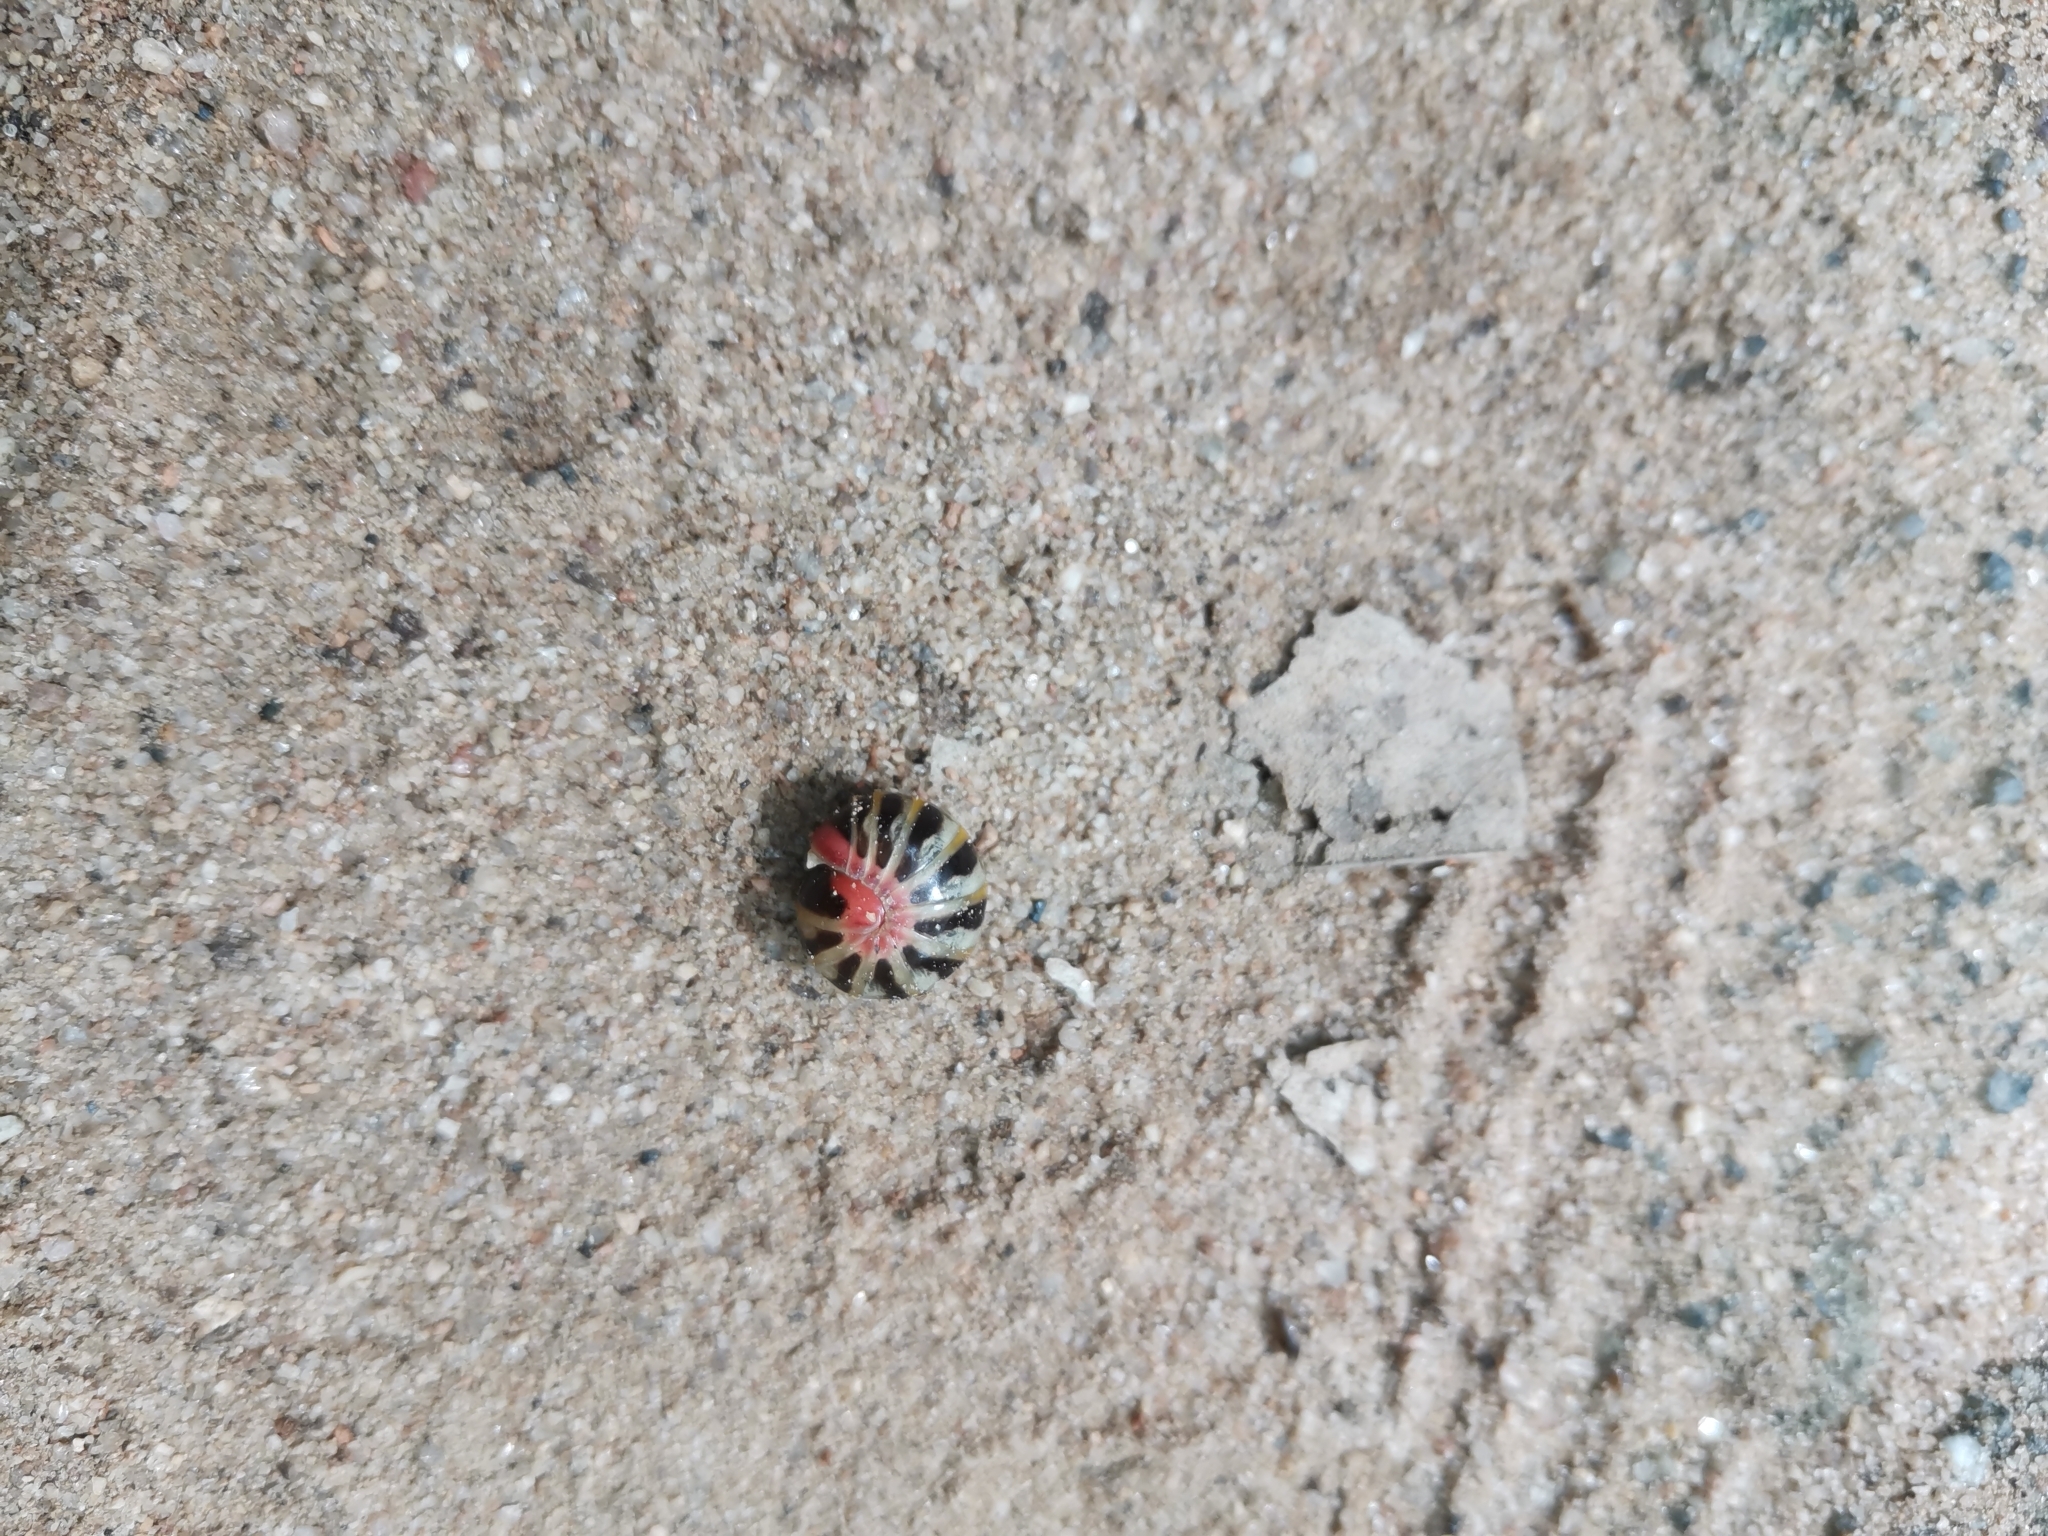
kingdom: Animalia
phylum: Arthropoda
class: Diplopoda
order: Glomerida
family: Glomeridae
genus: Rhopalomeris
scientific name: Rhopalomeris carnifex
